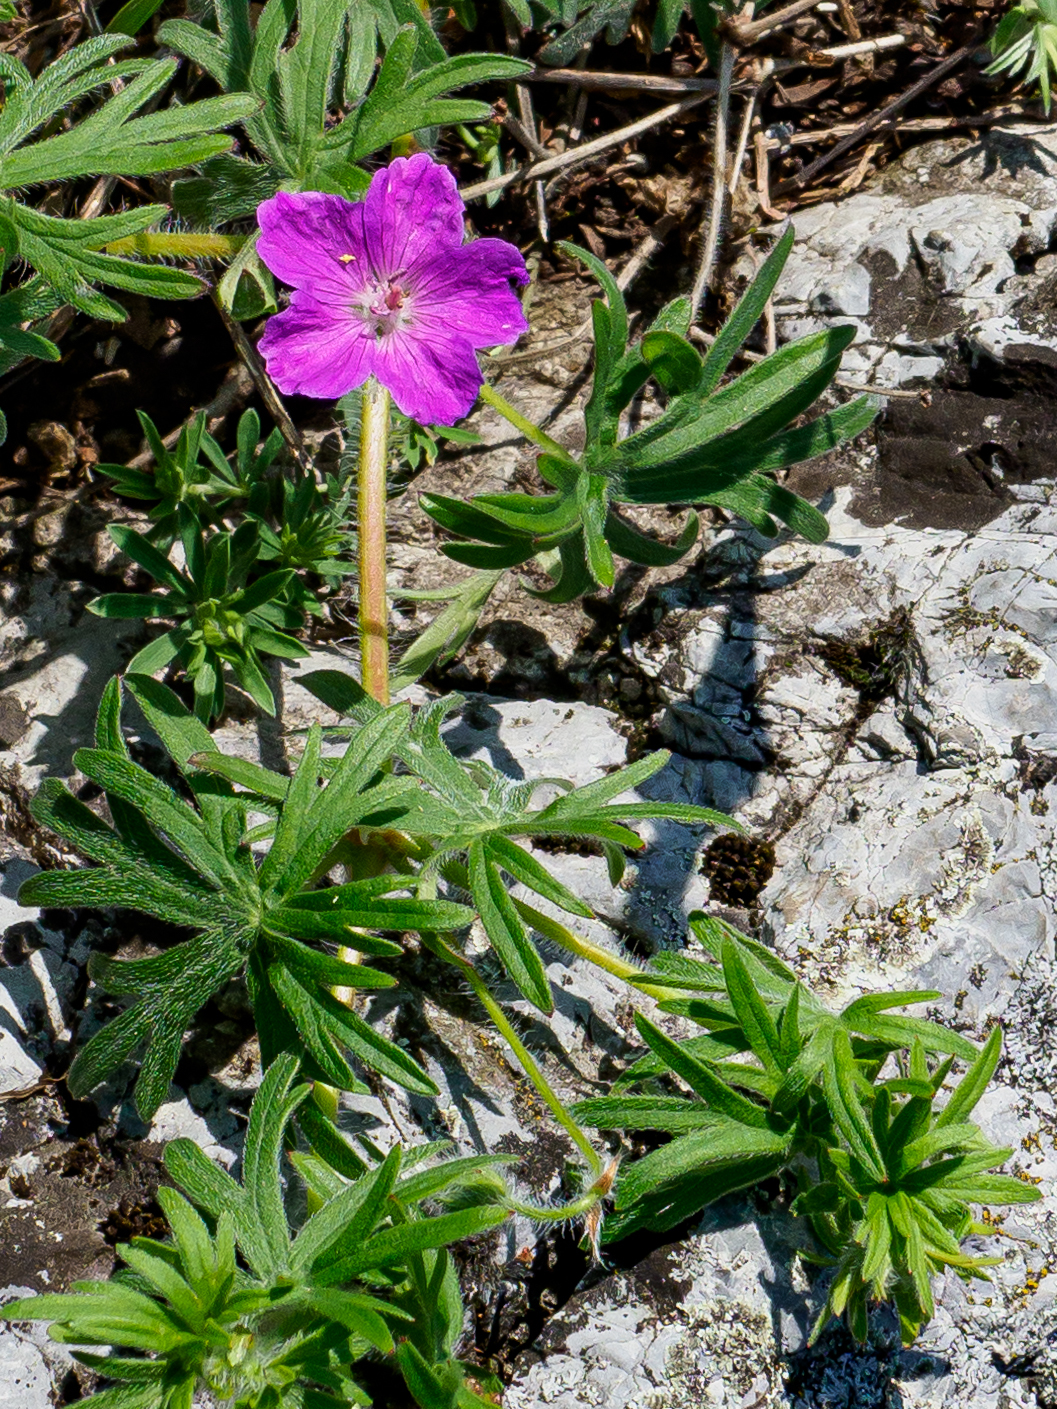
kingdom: Plantae
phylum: Tracheophyta
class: Magnoliopsida
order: Geraniales
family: Geraniaceae
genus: Geranium
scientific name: Geranium sanguineum
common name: Bloody crane's-bill
